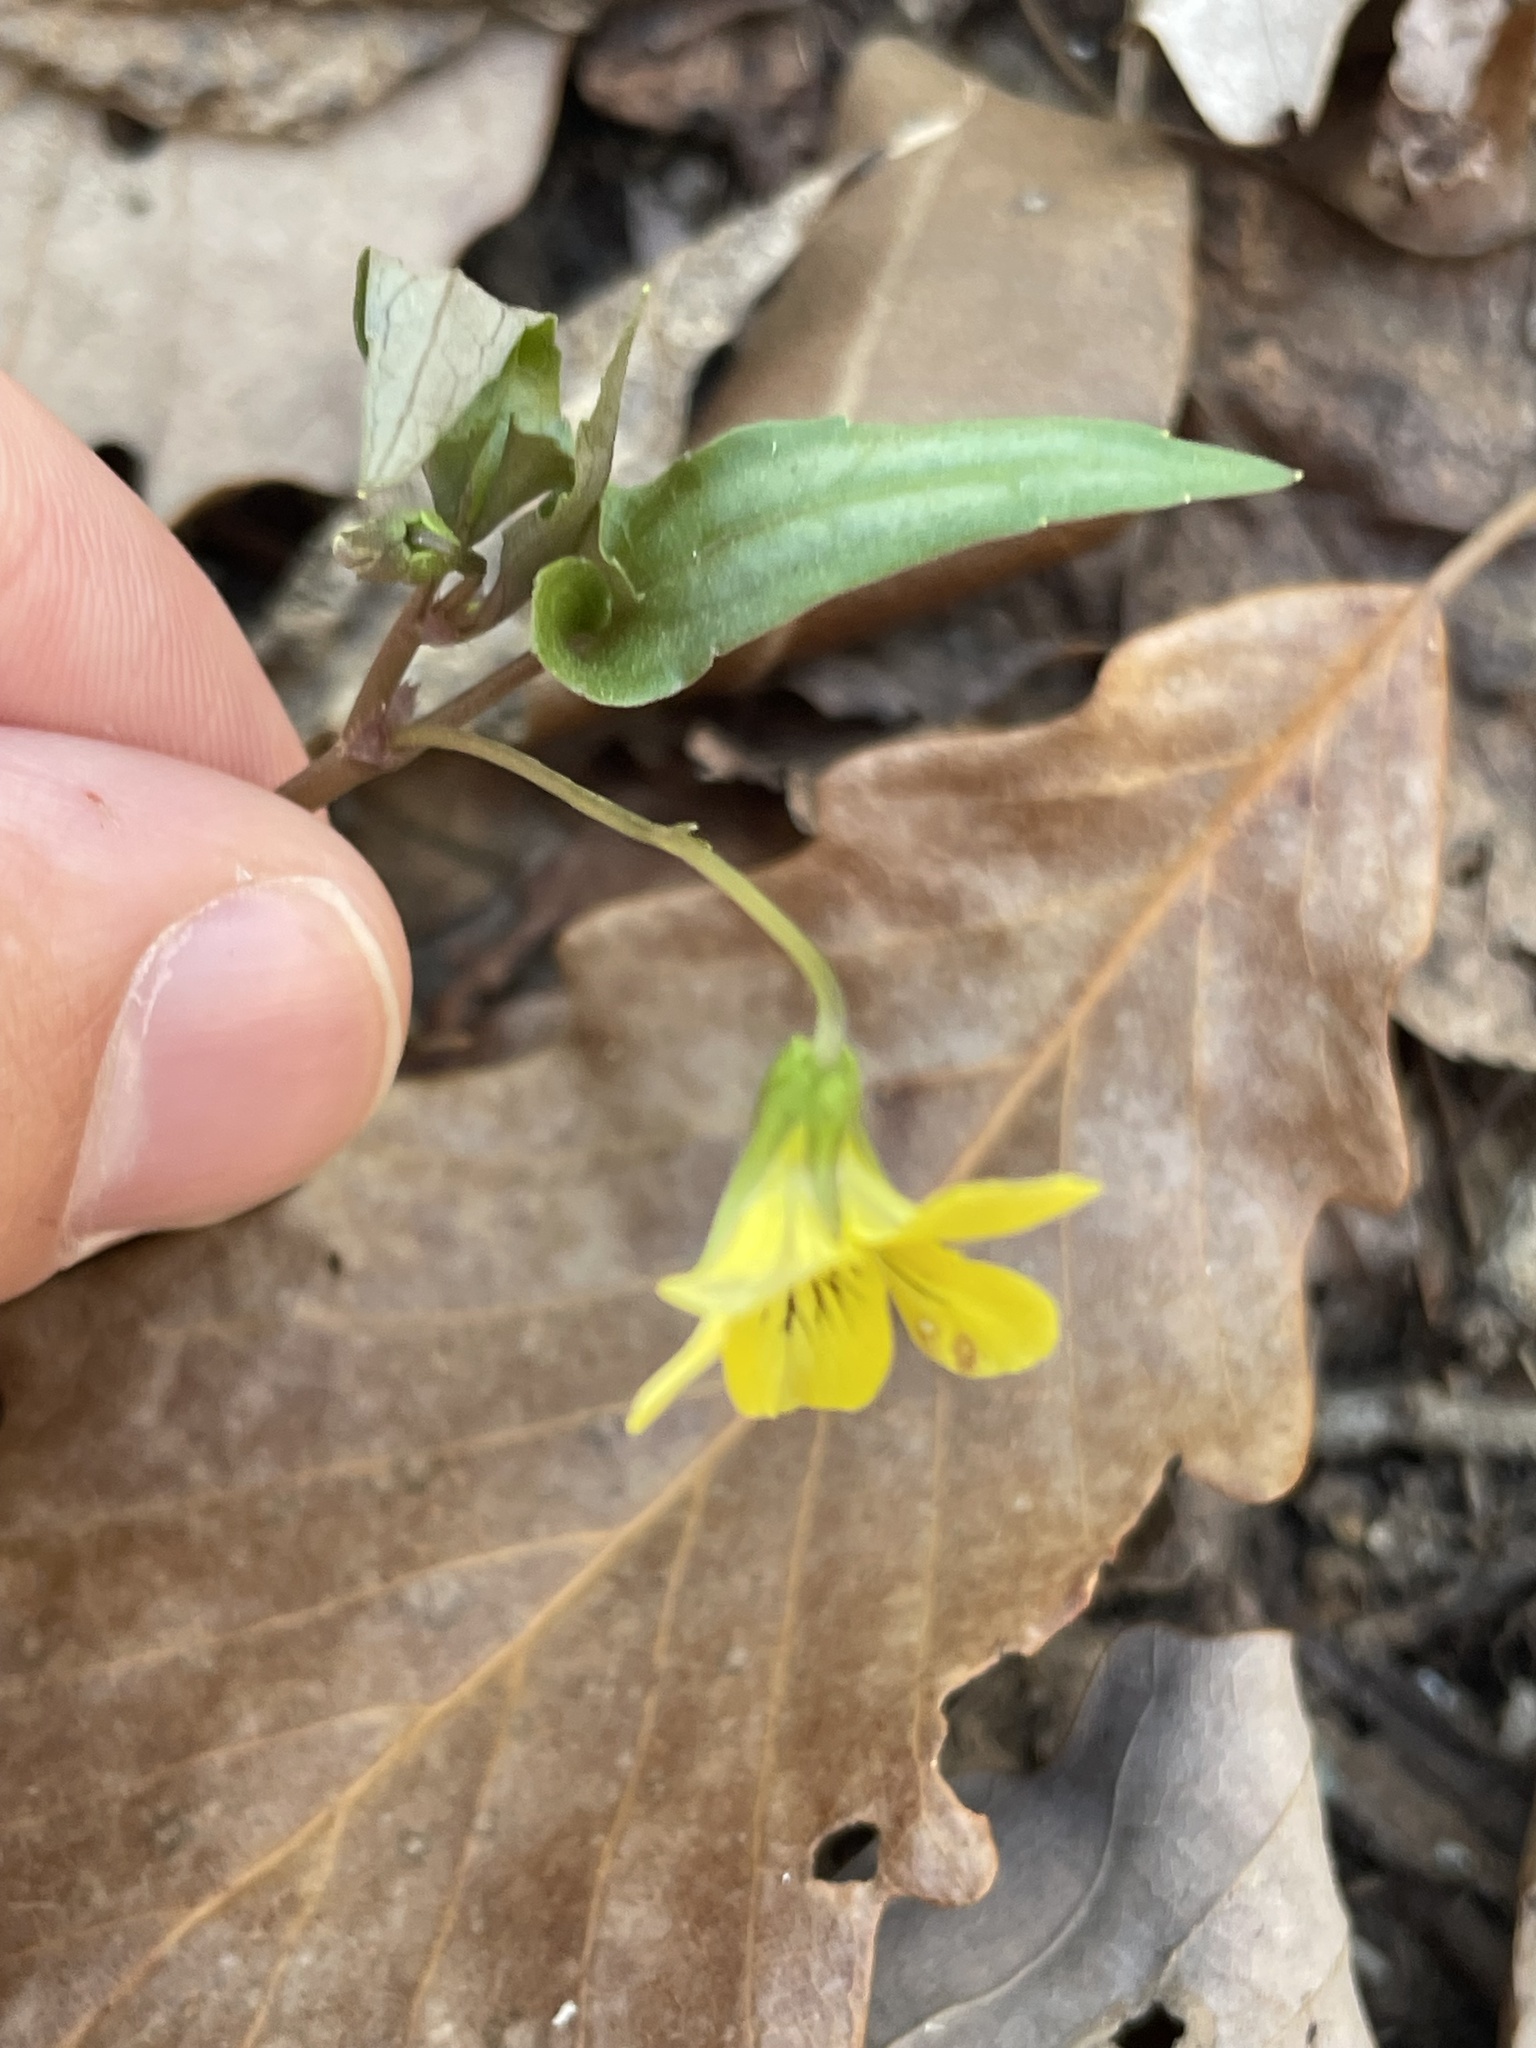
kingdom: Plantae
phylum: Tracheophyta
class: Magnoliopsida
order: Malpighiales
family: Violaceae
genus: Viola
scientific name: Viola hastata
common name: Spear-leaf violet
